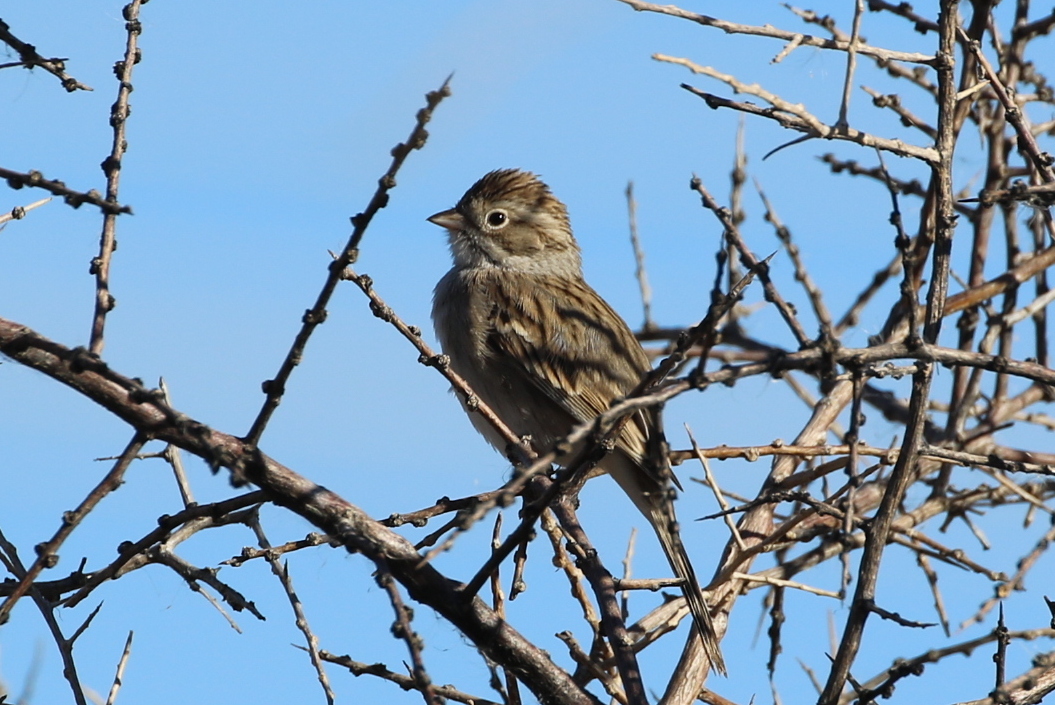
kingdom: Animalia
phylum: Chordata
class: Aves
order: Passeriformes
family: Passerellidae
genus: Spizella
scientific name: Spizella breweri
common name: Brewer's sparrow
